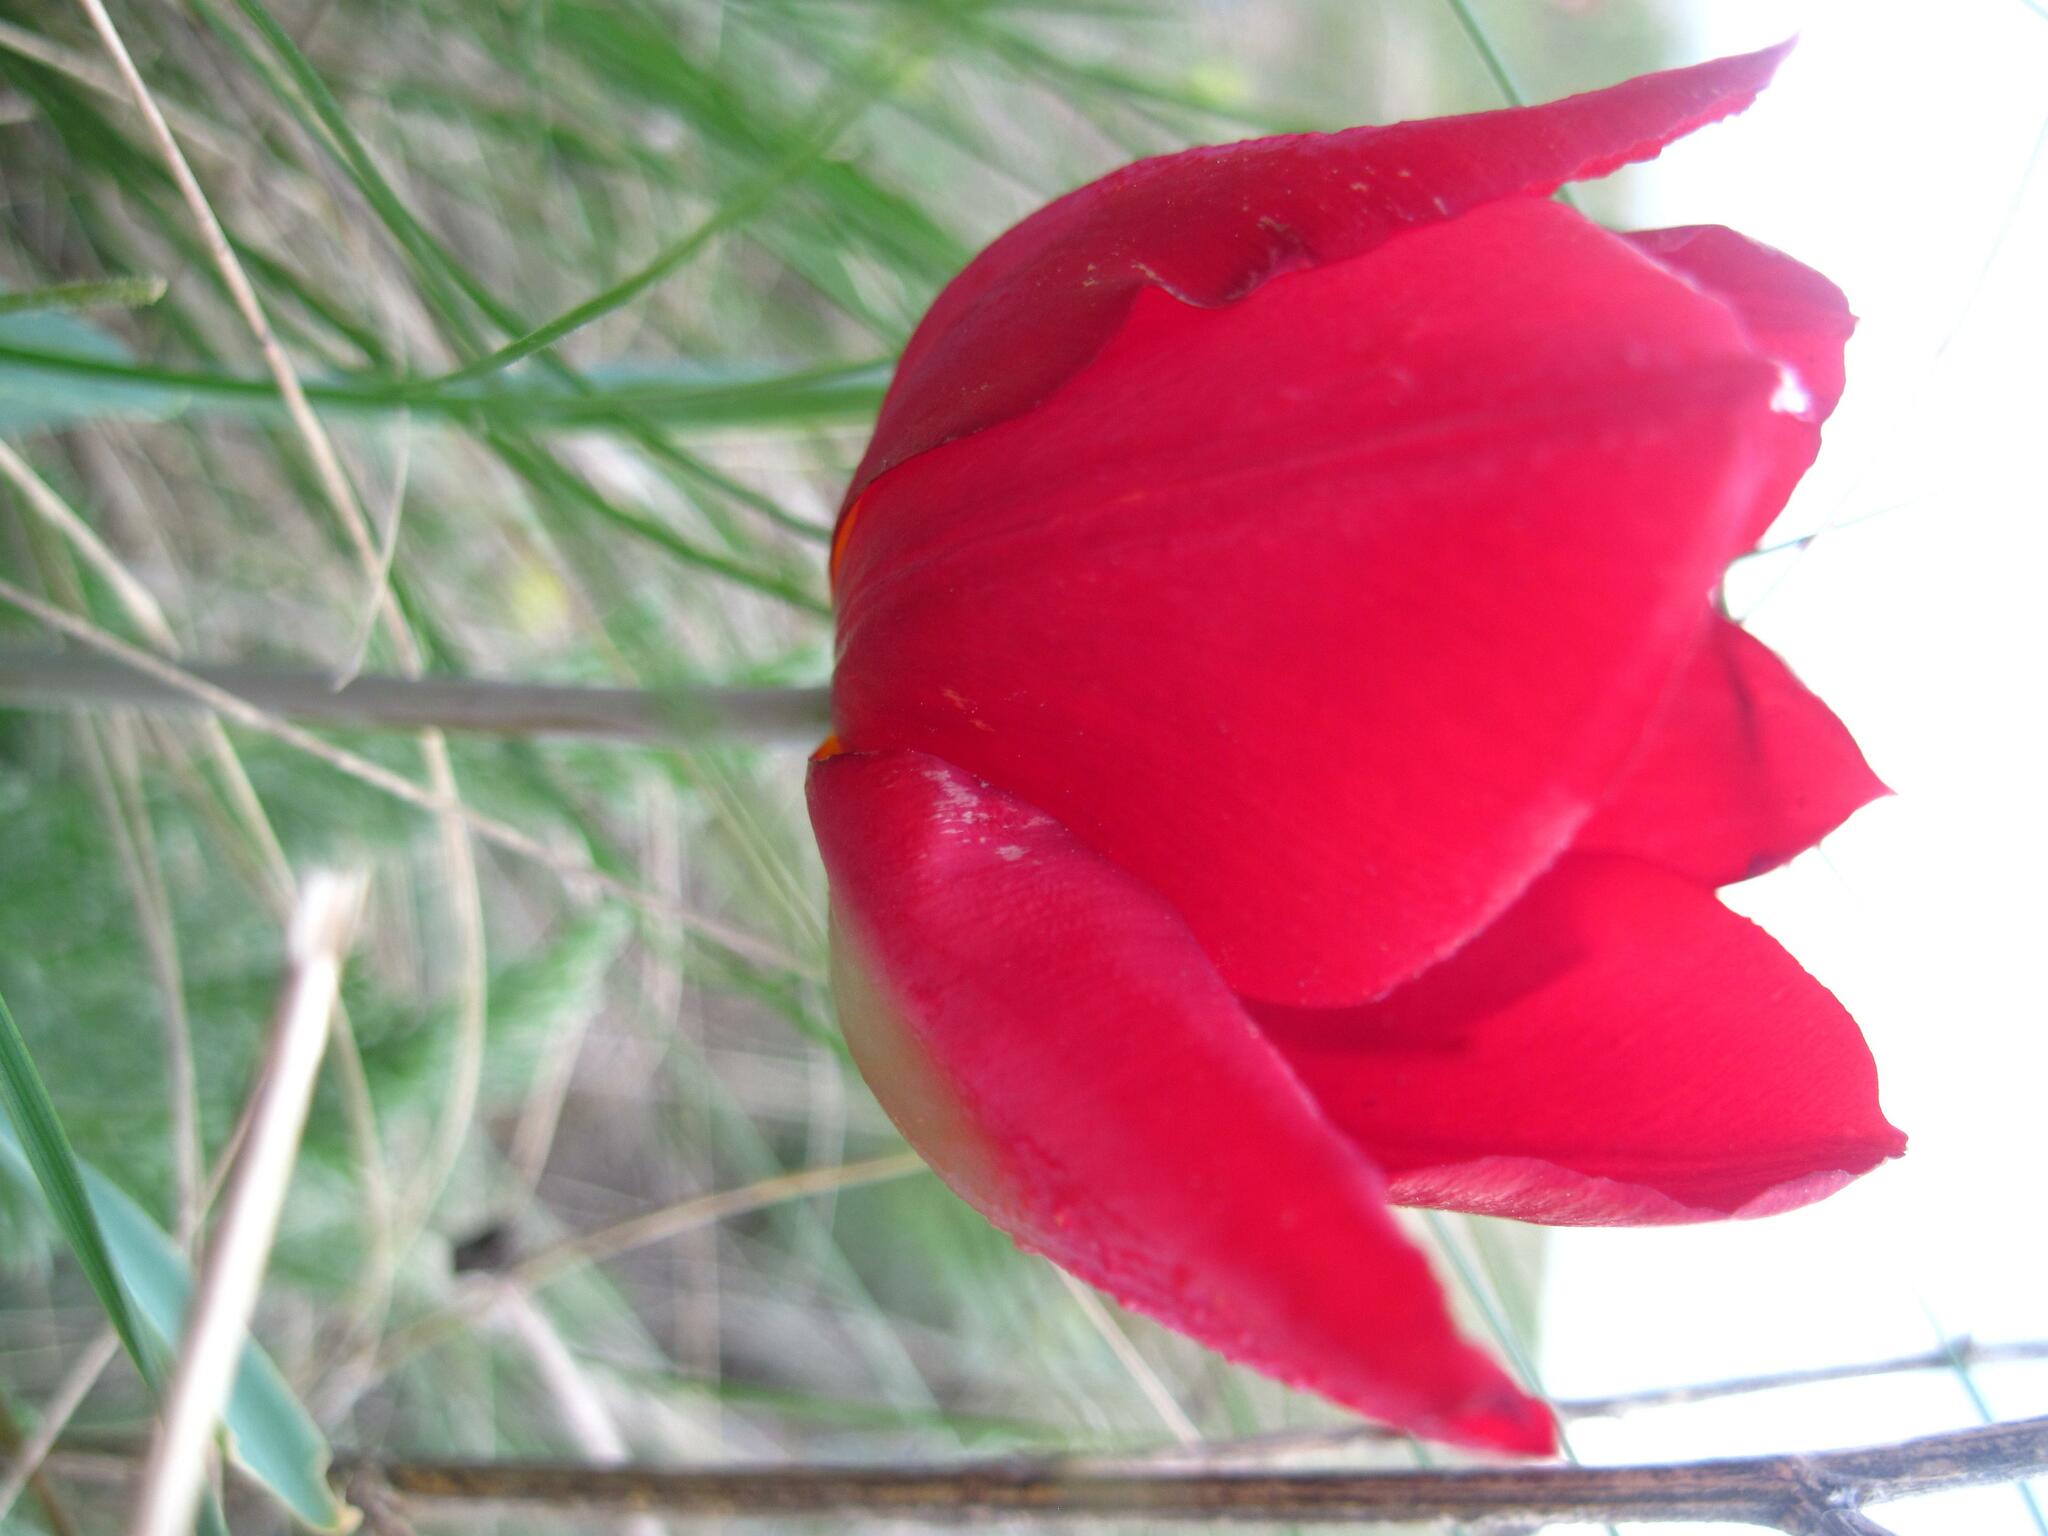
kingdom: Plantae
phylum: Tracheophyta
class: Liliopsida
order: Liliales
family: Liliaceae
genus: Tulipa
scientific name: Tulipa suaveolens
